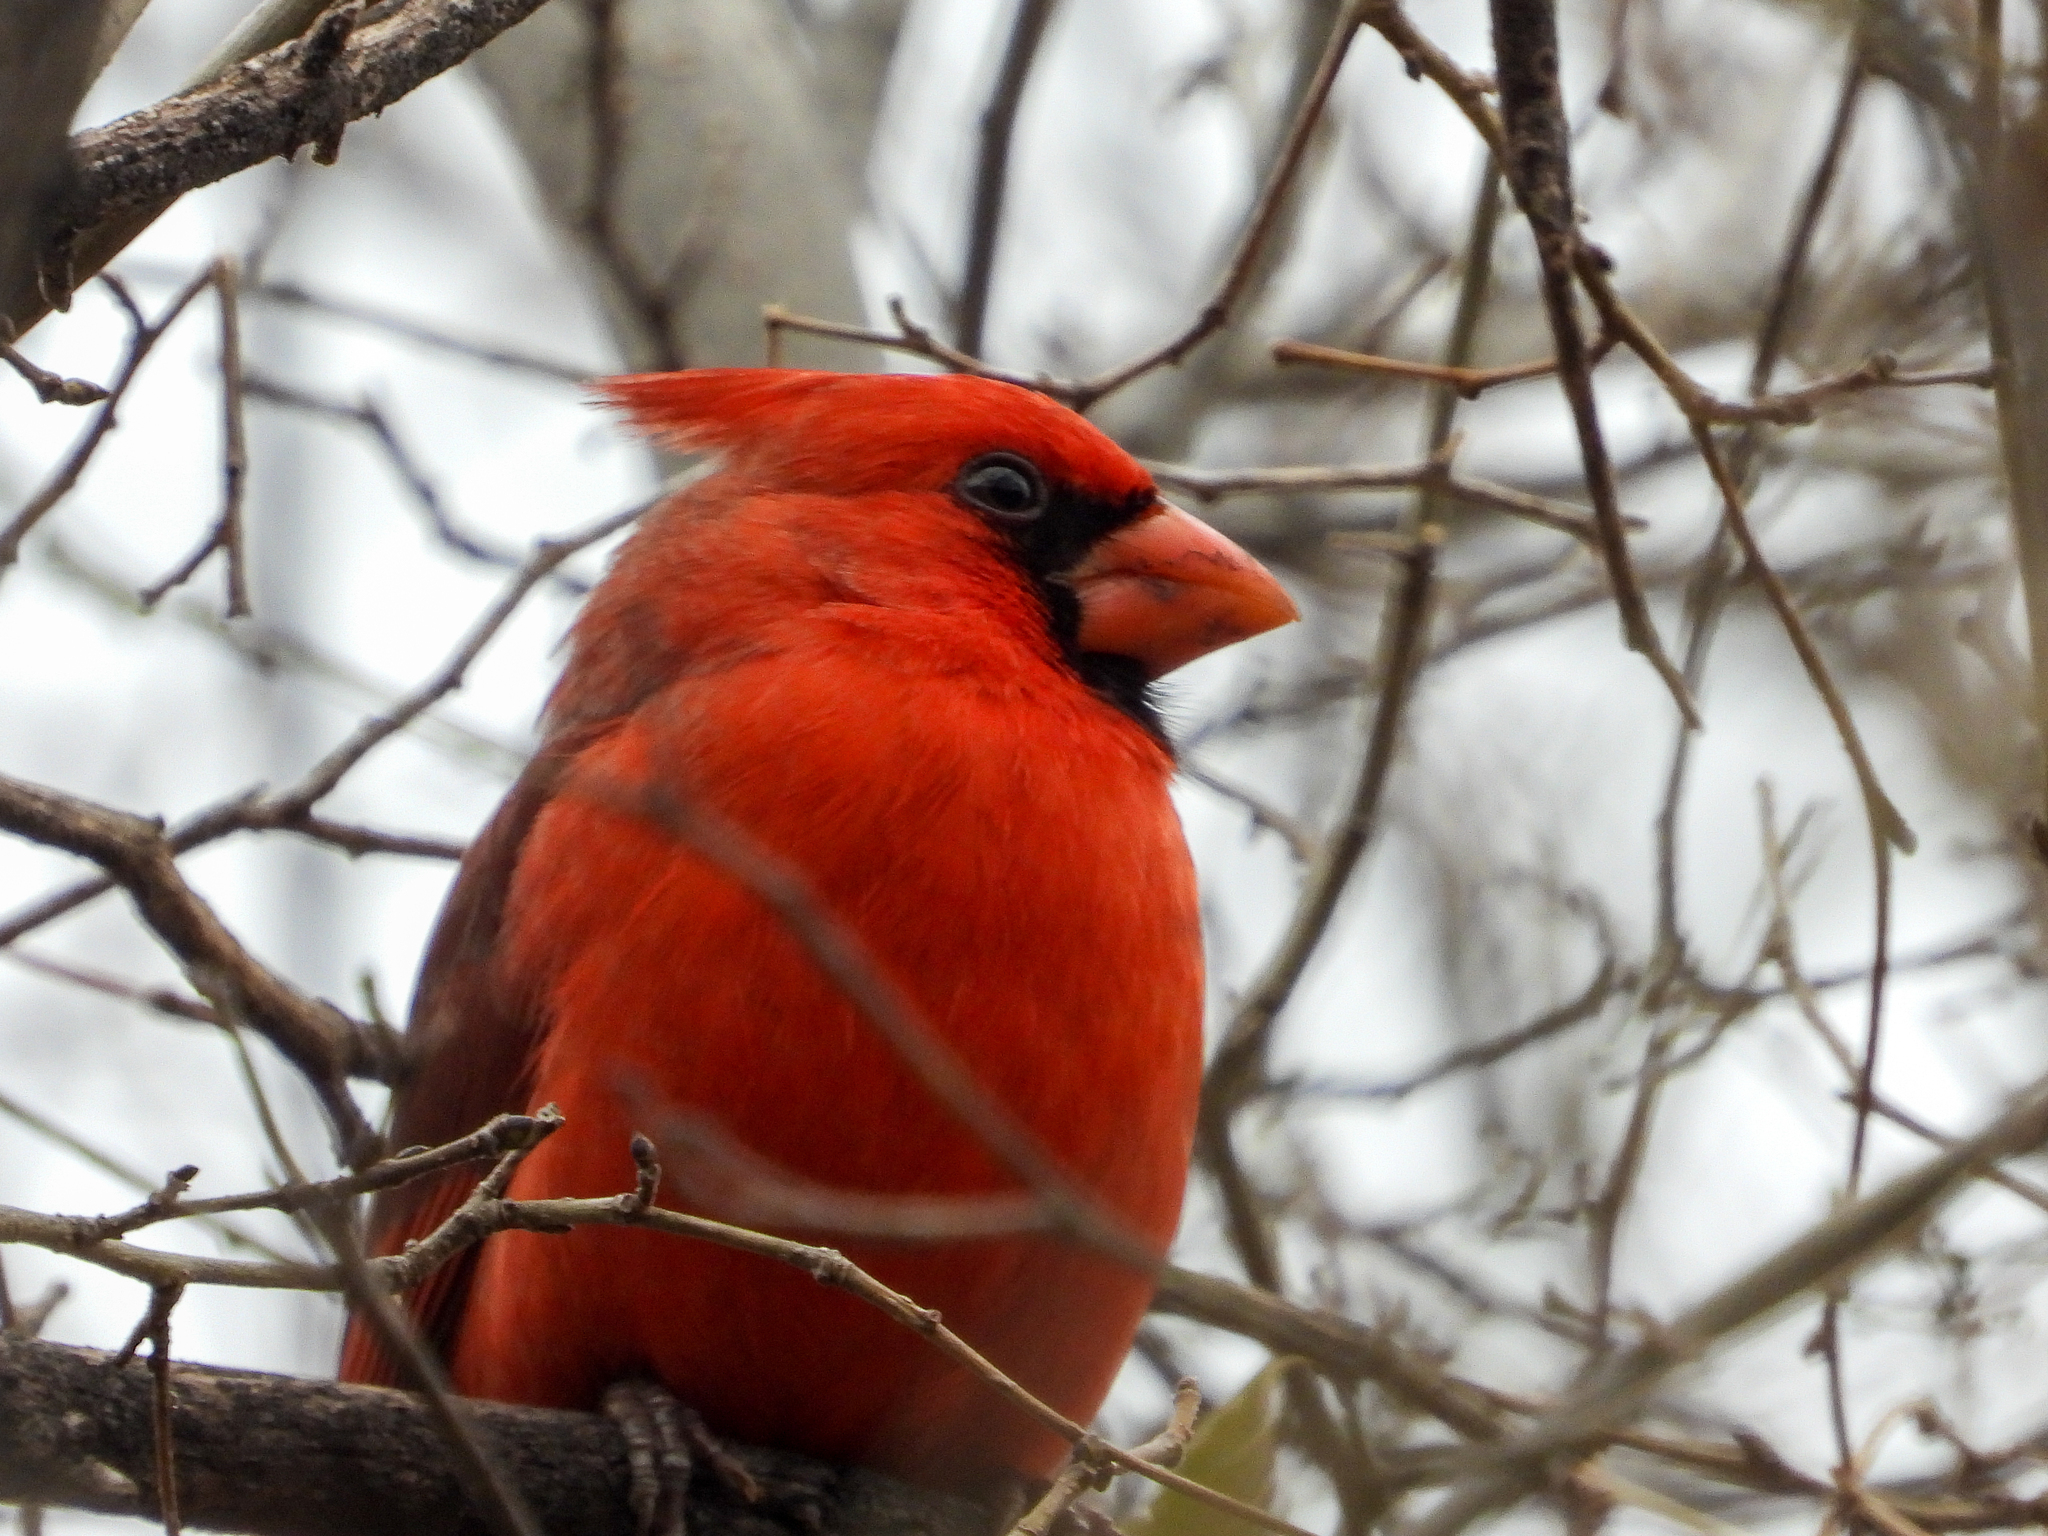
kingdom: Animalia
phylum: Chordata
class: Aves
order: Passeriformes
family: Cardinalidae
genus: Cardinalis
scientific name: Cardinalis cardinalis
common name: Northern cardinal
